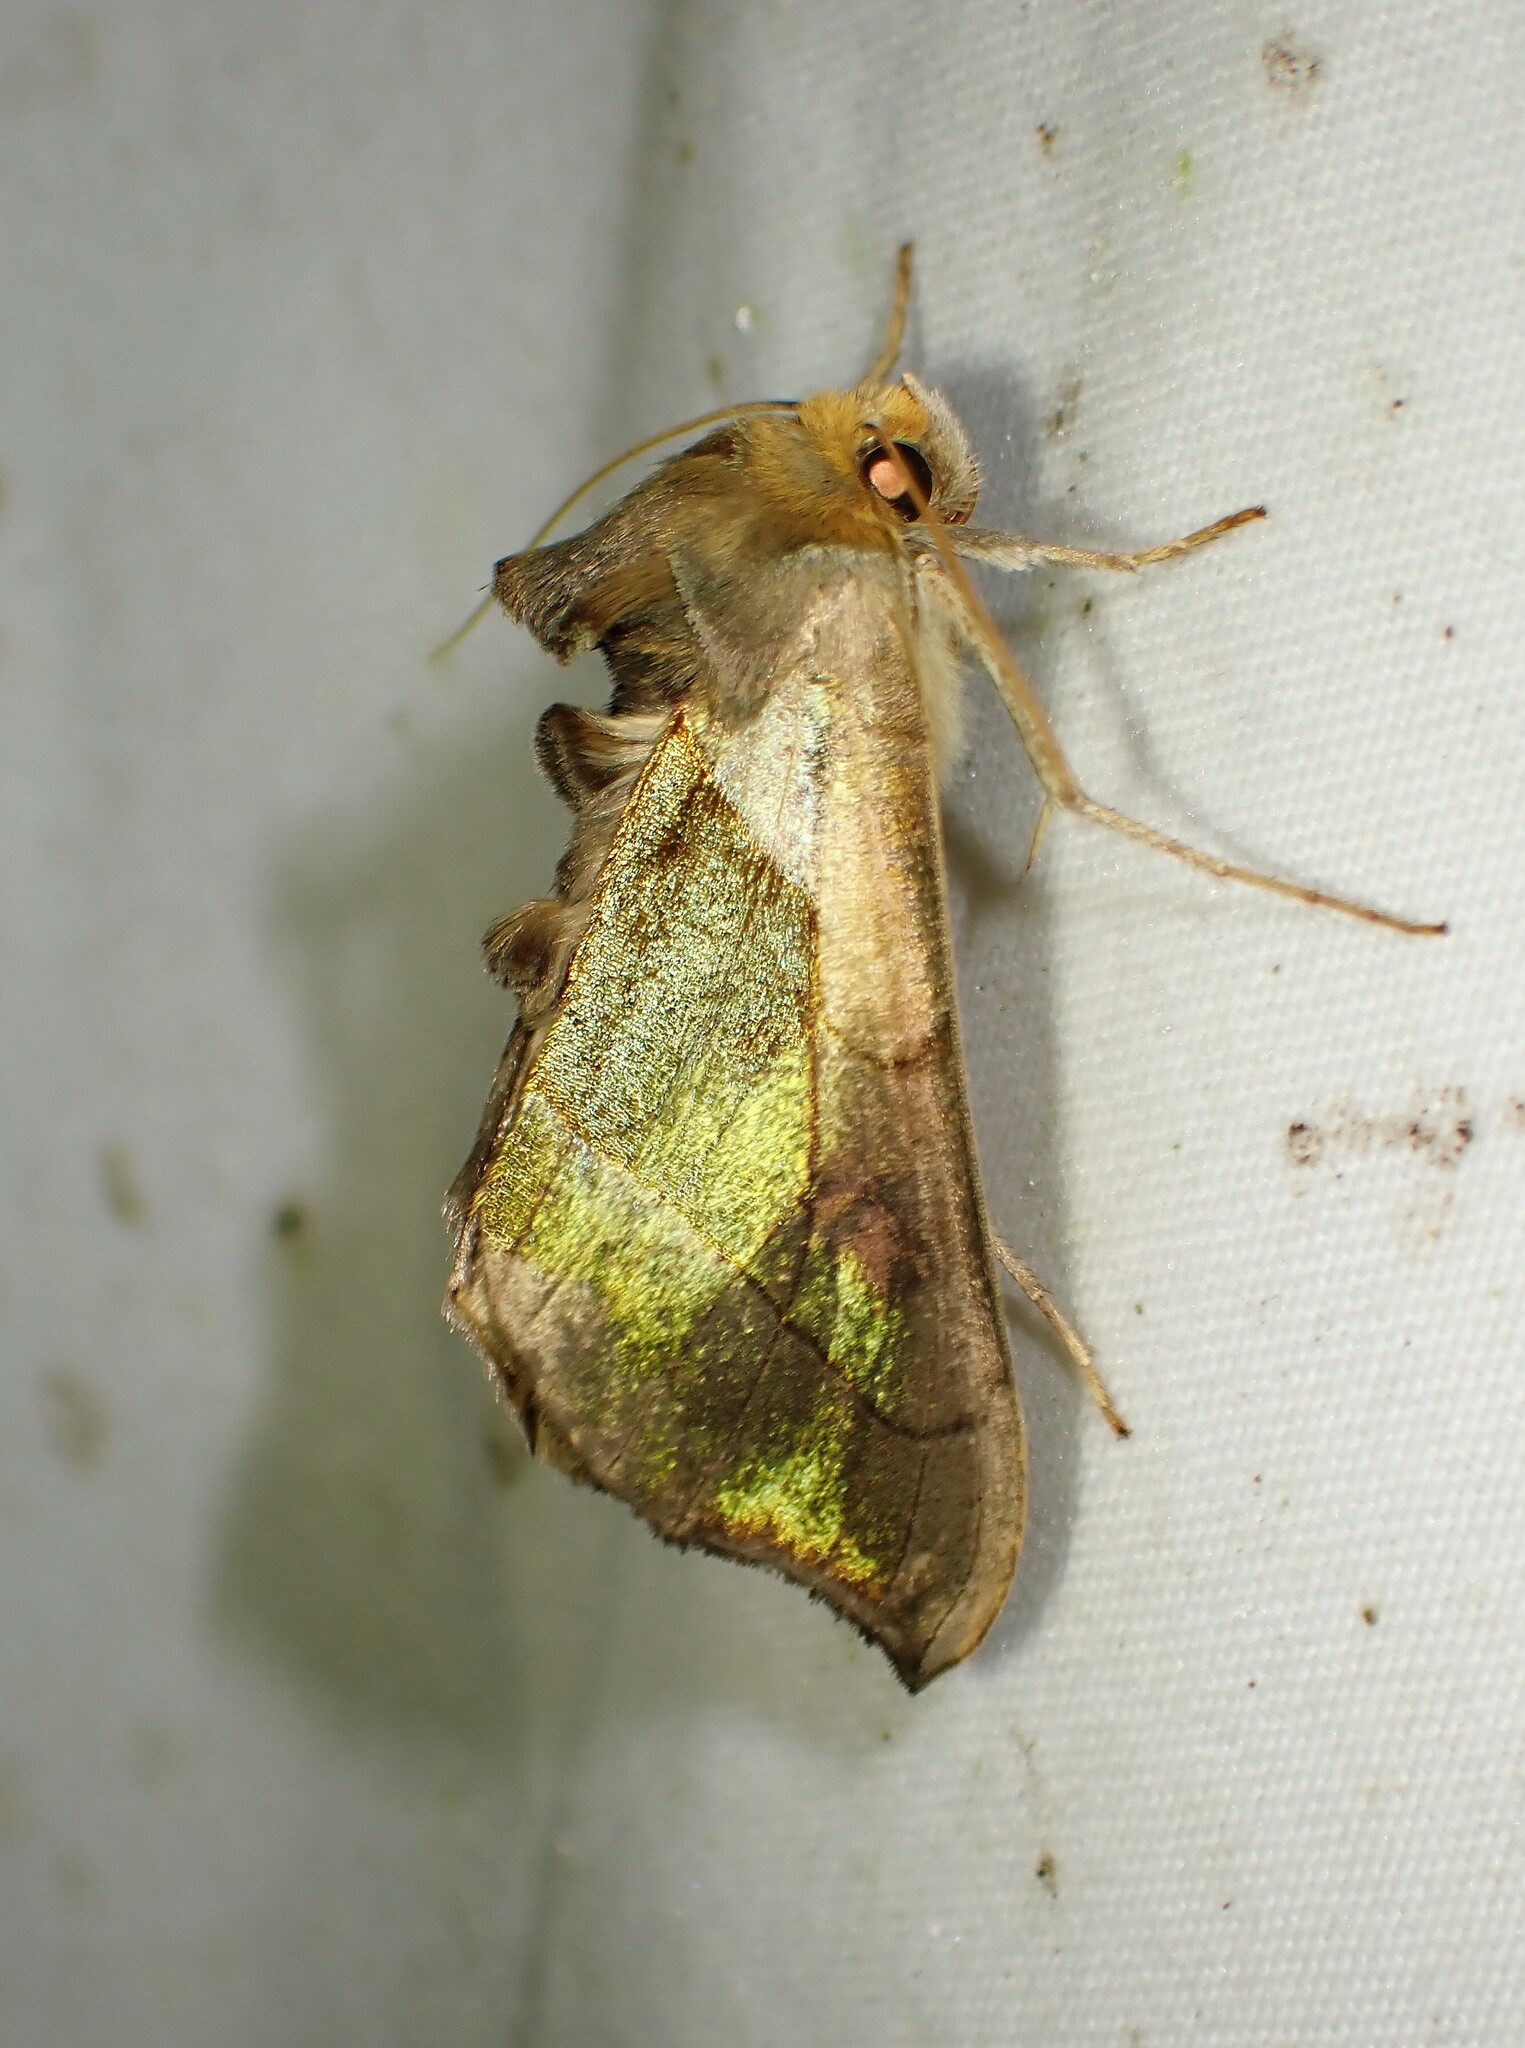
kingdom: Animalia
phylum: Arthropoda
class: Insecta
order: Lepidoptera
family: Noctuidae
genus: Diachrysia
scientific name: Diachrysia balluca
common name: Green-patched looper moth
